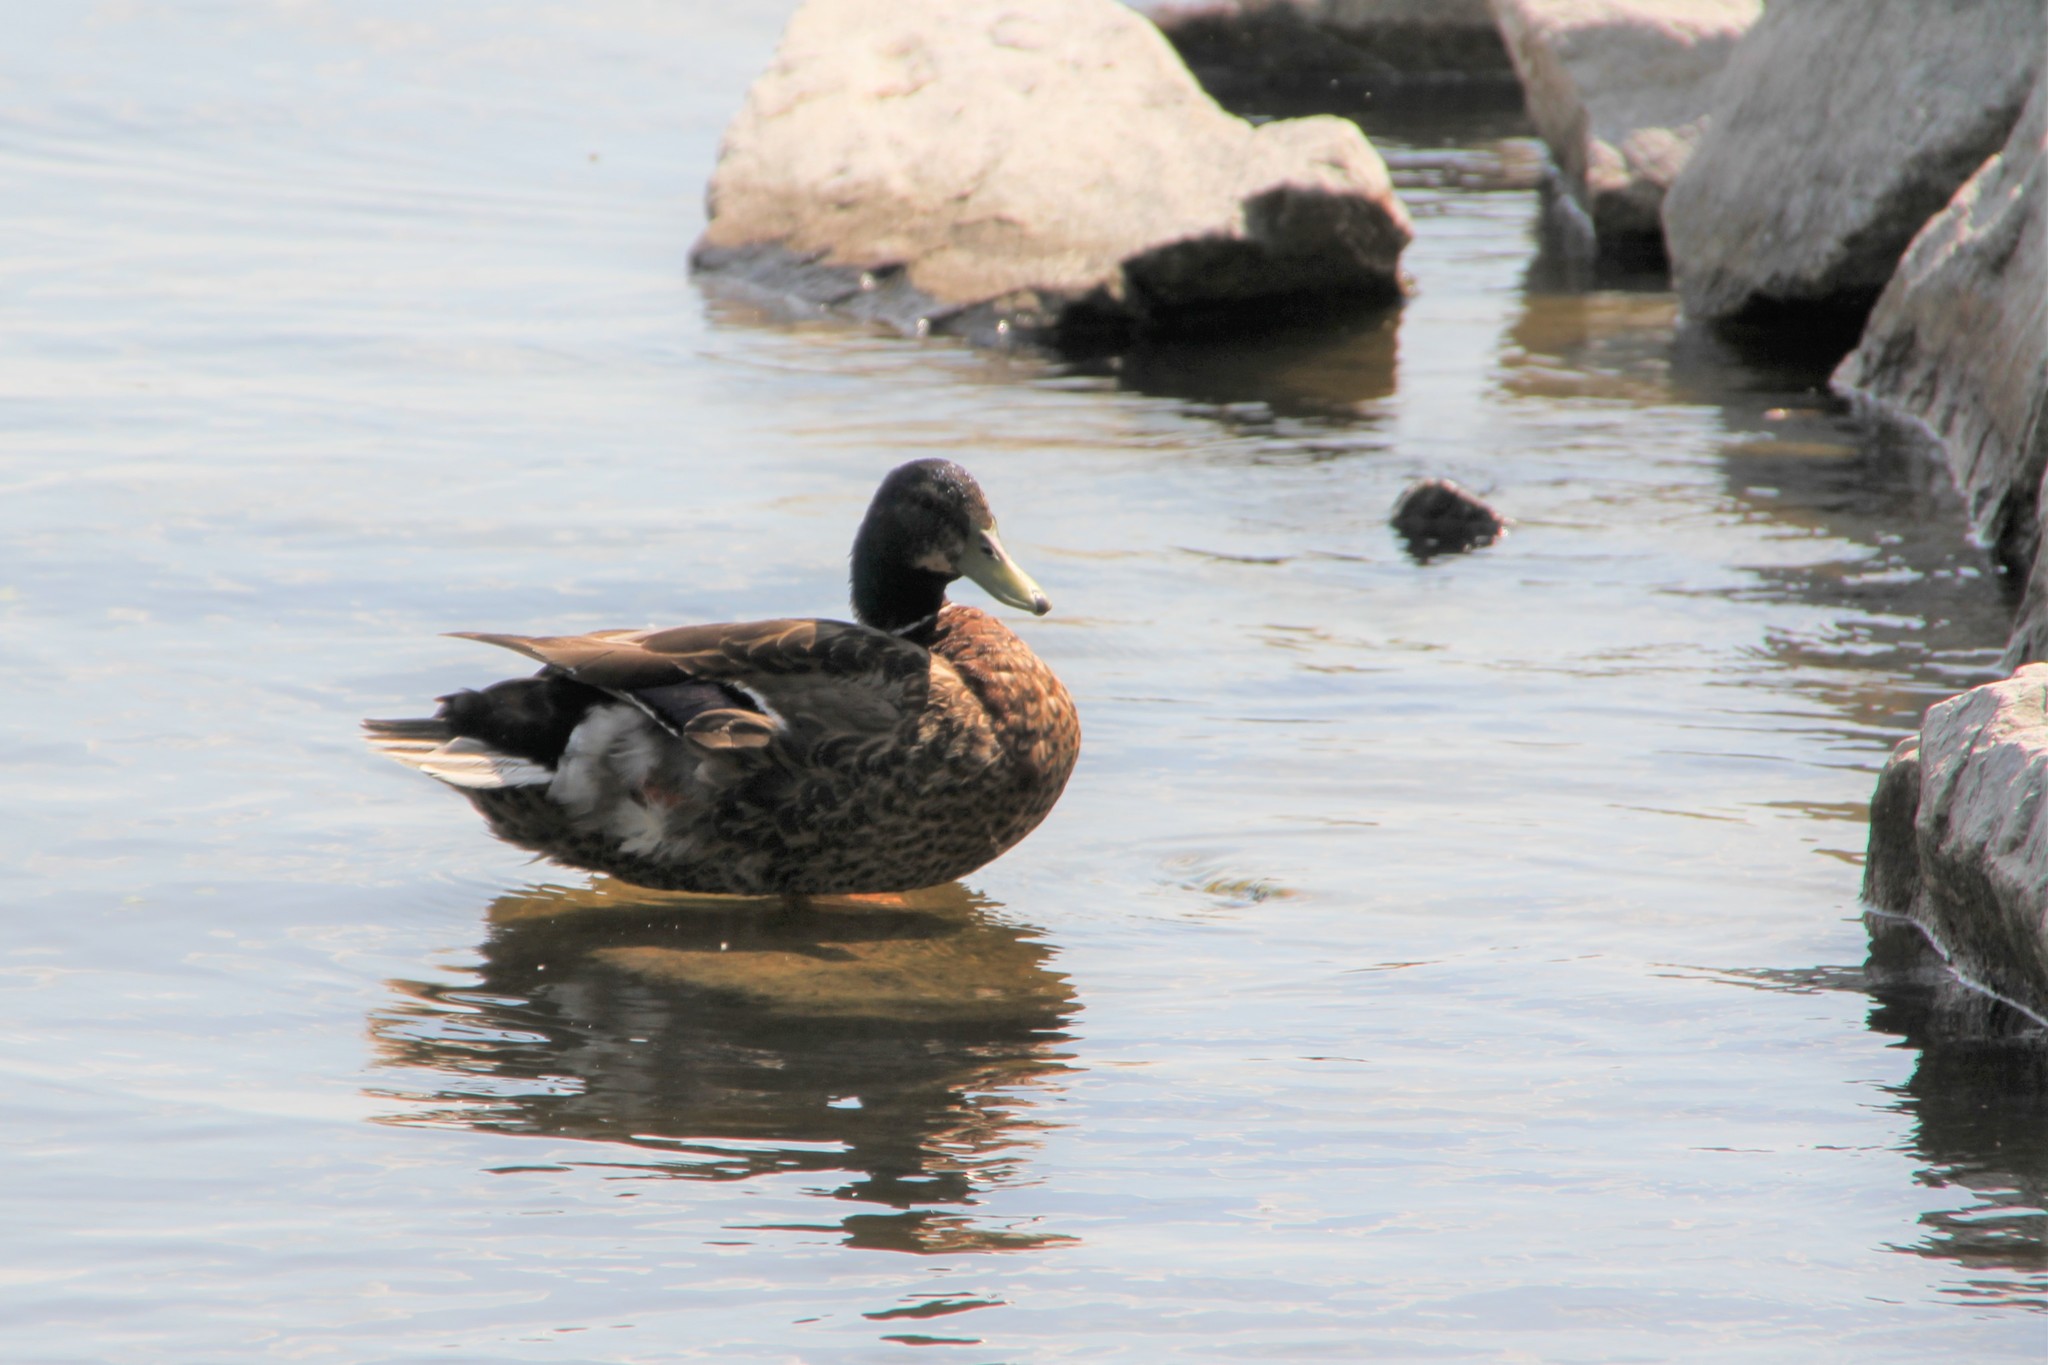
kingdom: Animalia
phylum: Chordata
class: Aves
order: Anseriformes
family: Anatidae
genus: Anas
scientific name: Anas platyrhynchos
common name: Mallard
